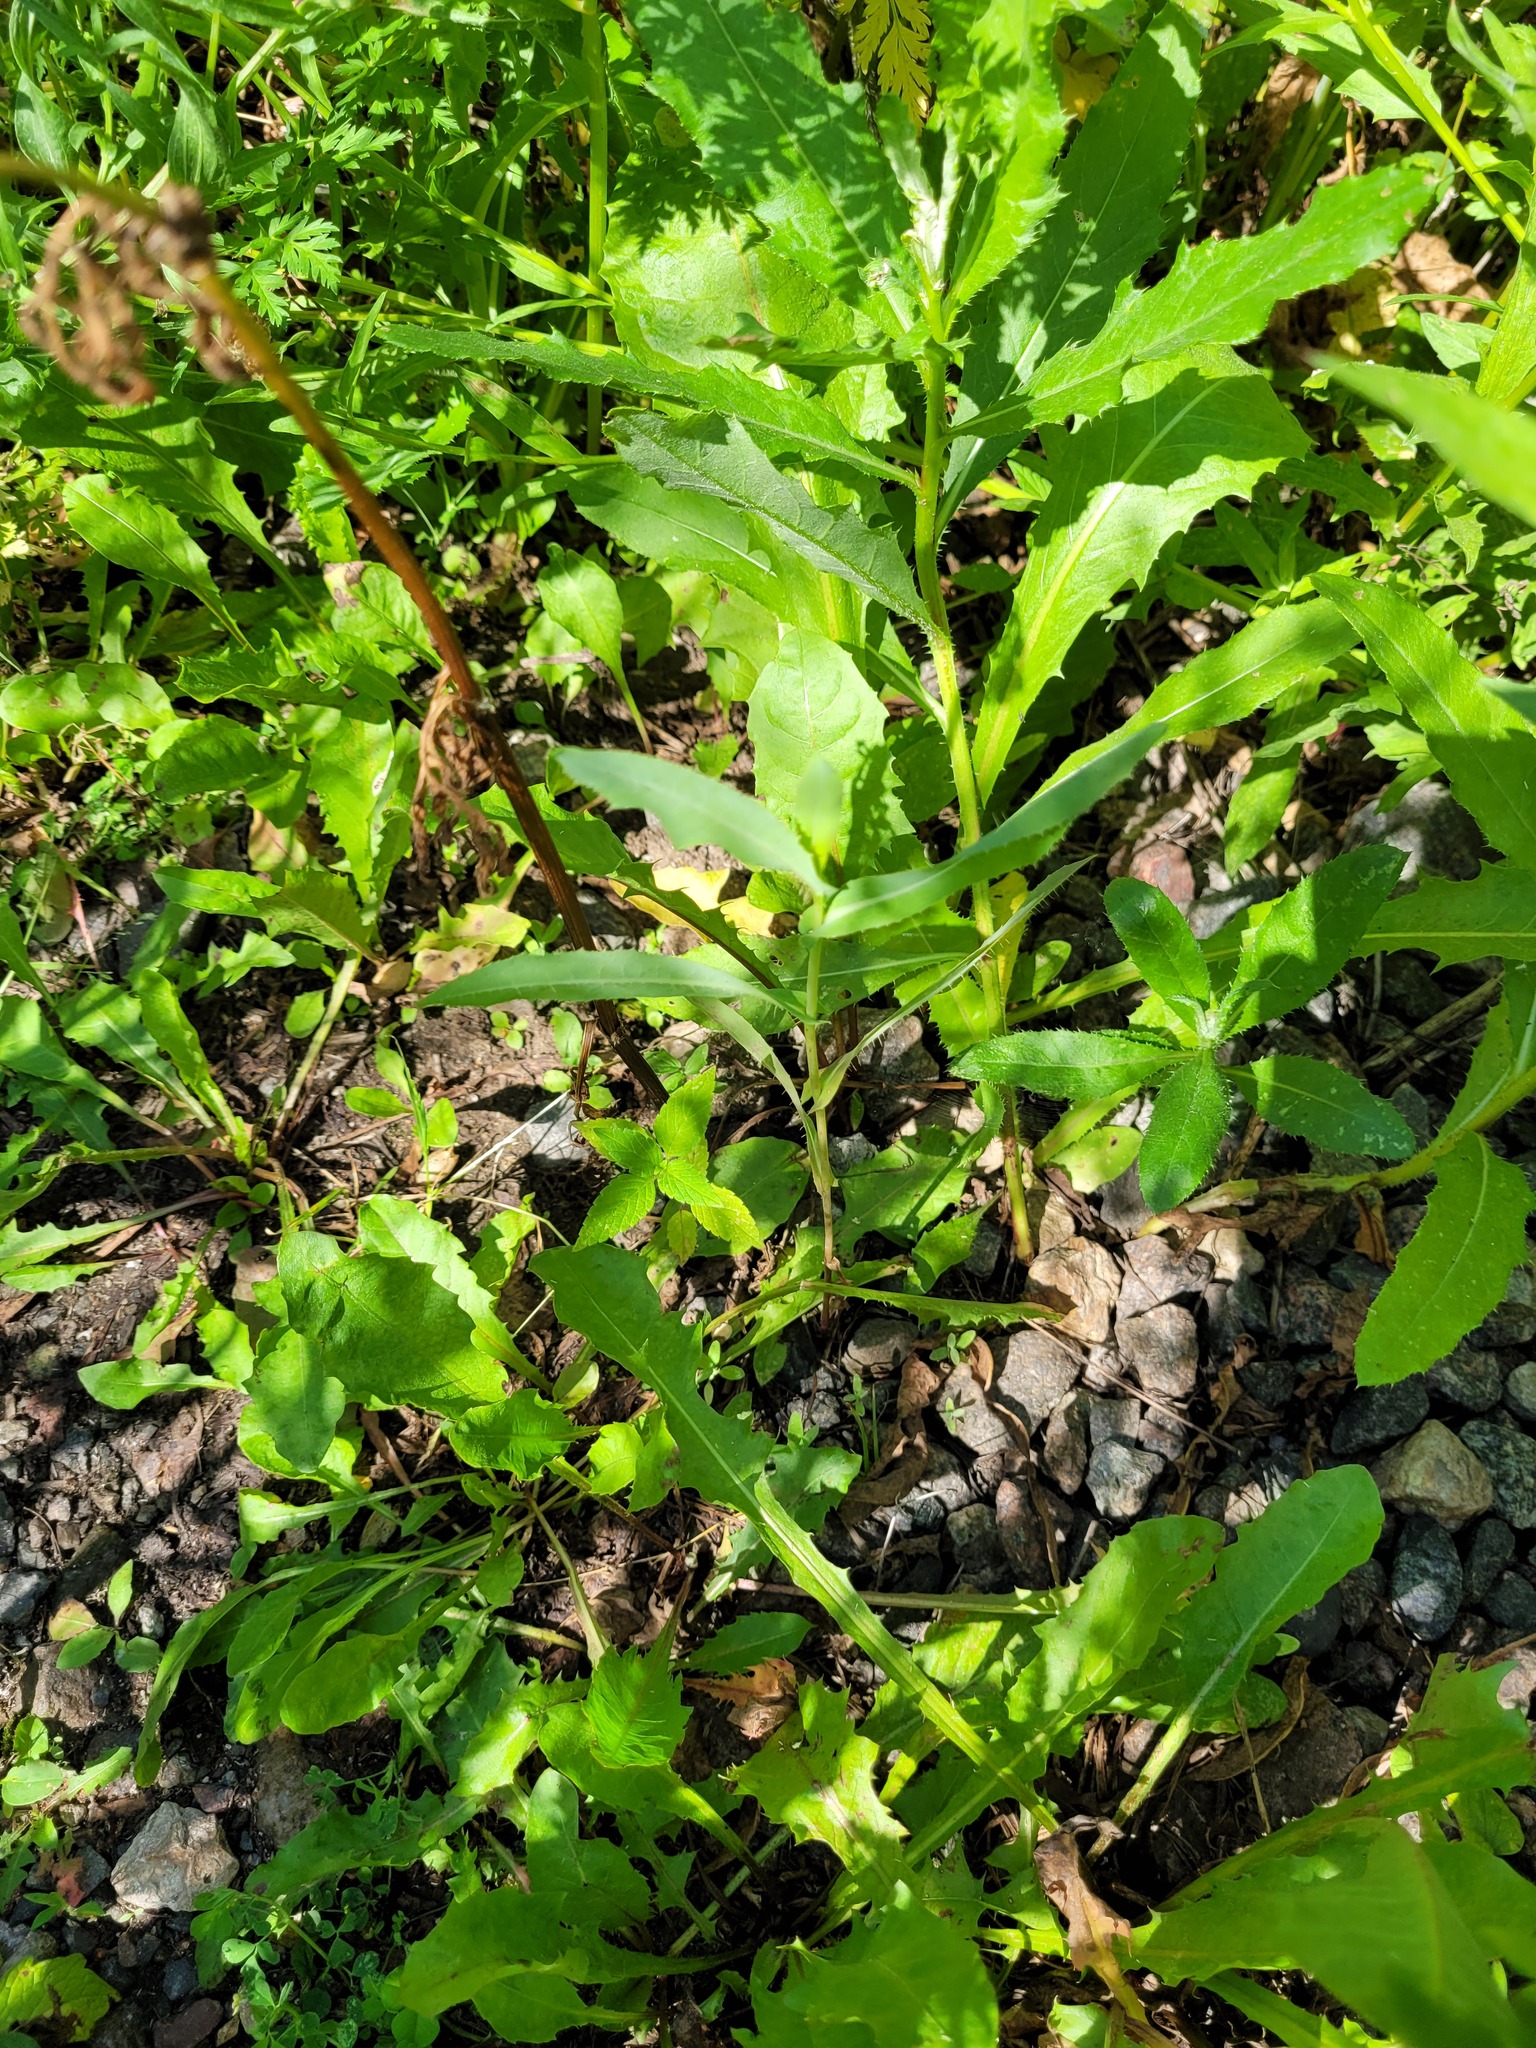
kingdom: Plantae
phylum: Tracheophyta
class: Magnoliopsida
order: Asterales
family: Asteraceae
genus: Lactuca
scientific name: Lactuca serriola
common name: Prickly lettuce
